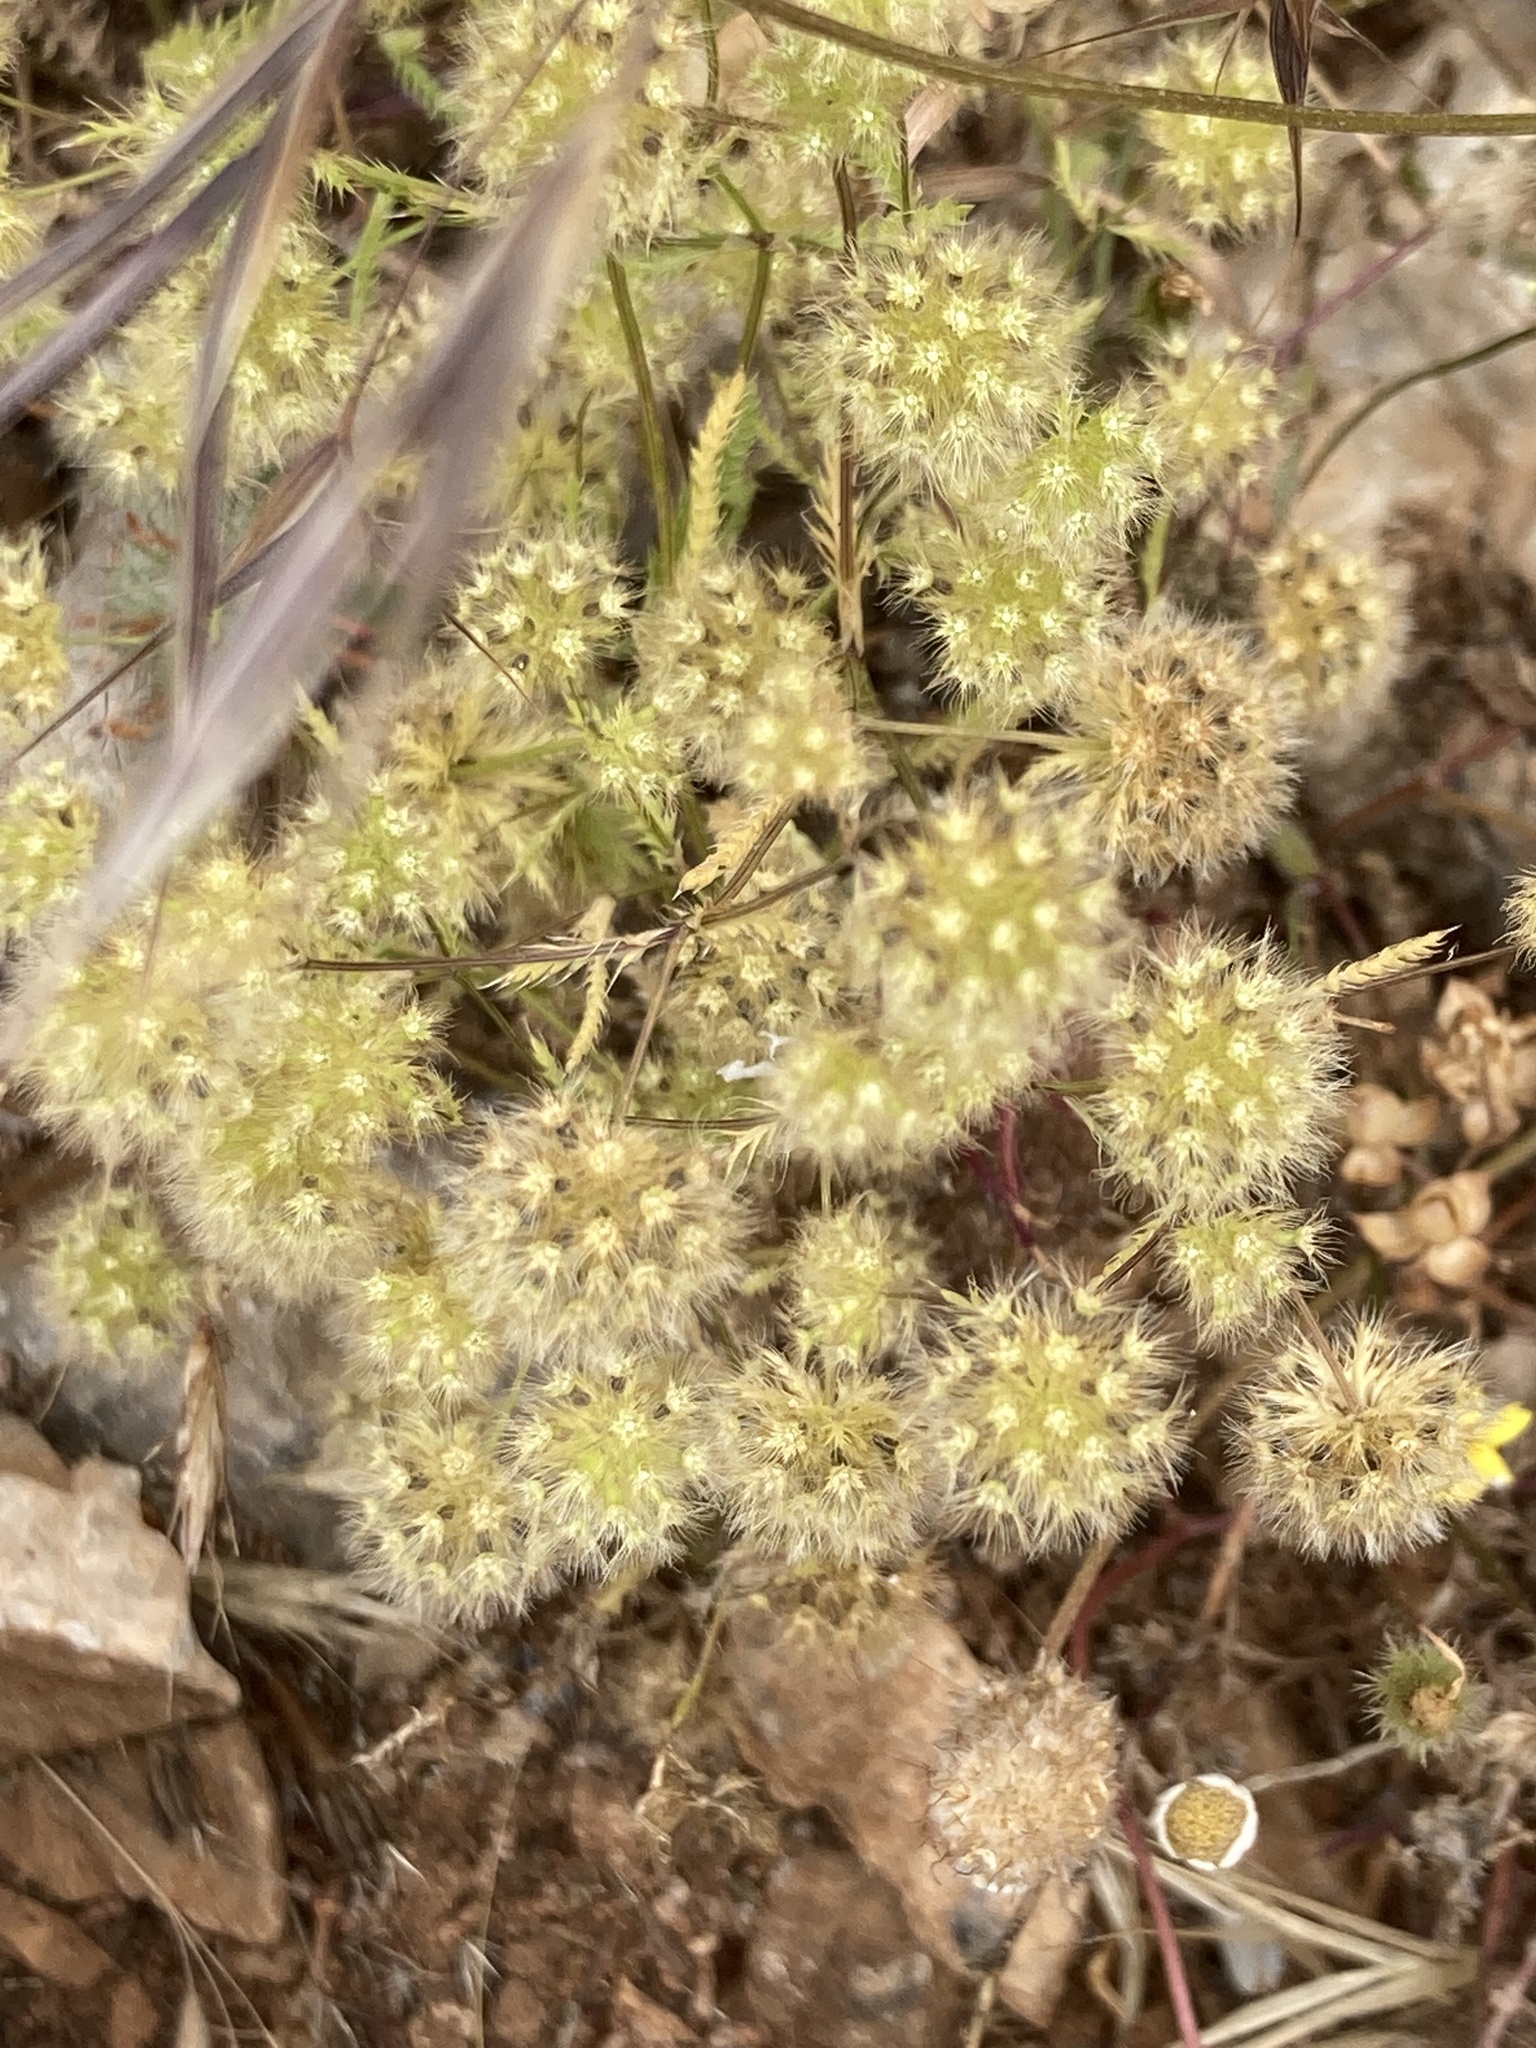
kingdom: Plantae
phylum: Tracheophyta
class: Magnoliopsida
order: Apiales
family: Apiaceae
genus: Lagoecia
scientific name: Lagoecia cuminoides
